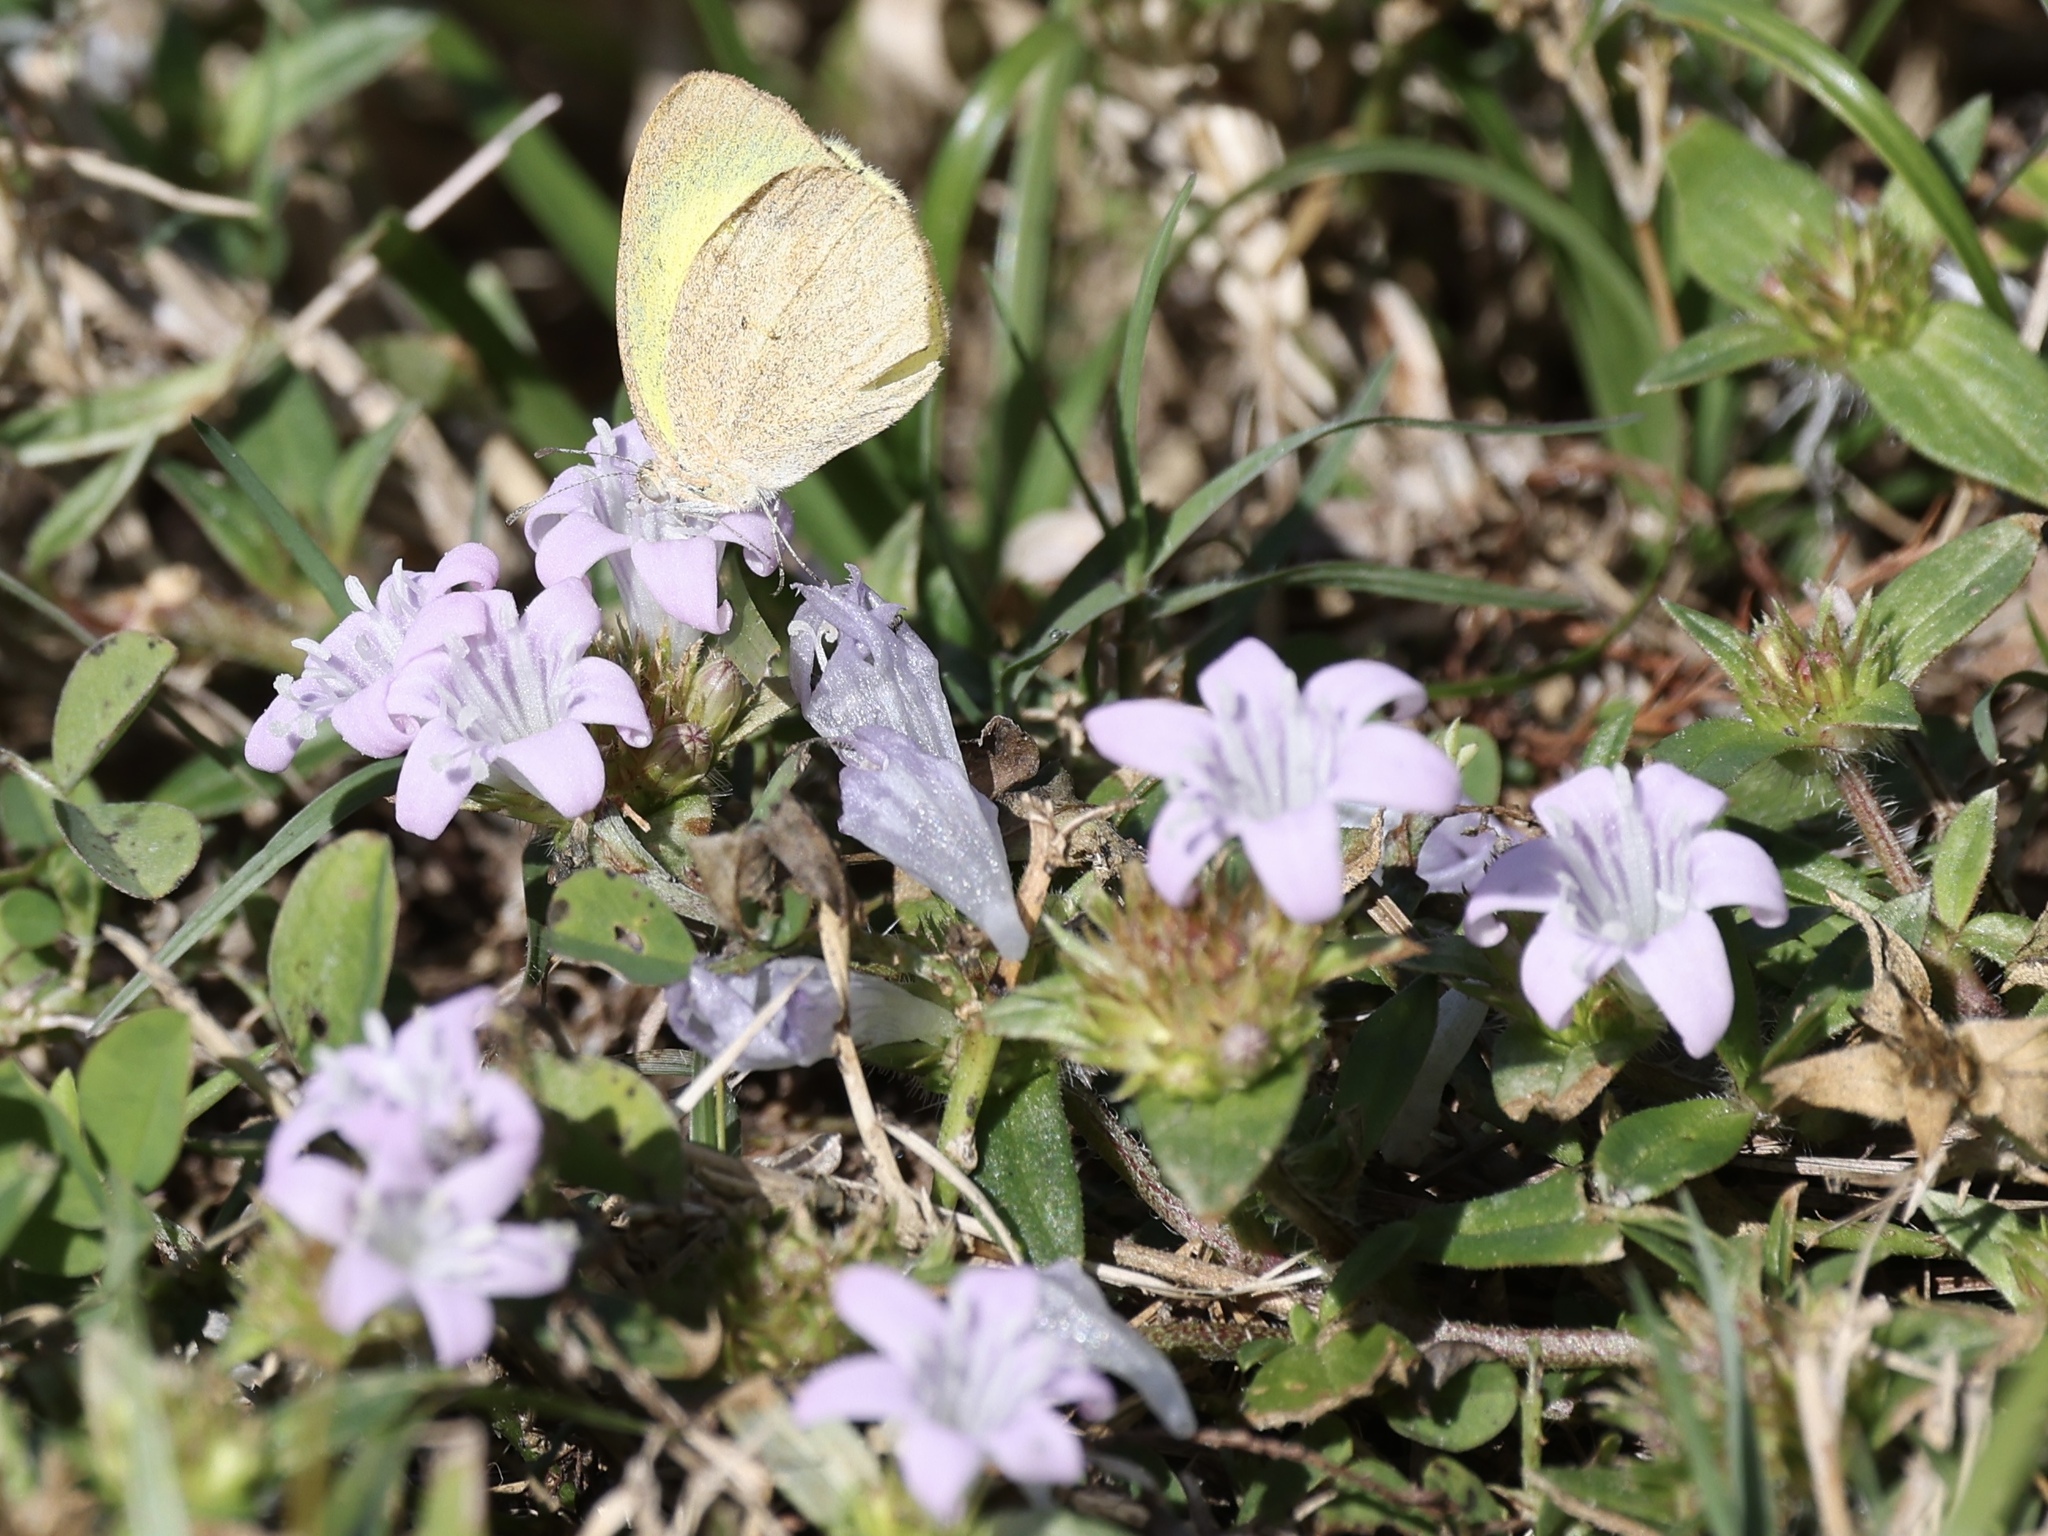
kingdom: Plantae
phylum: Tracheophyta
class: Magnoliopsida
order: Gentianales
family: Rubiaceae
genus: Richardia
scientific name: Richardia grandiflora
